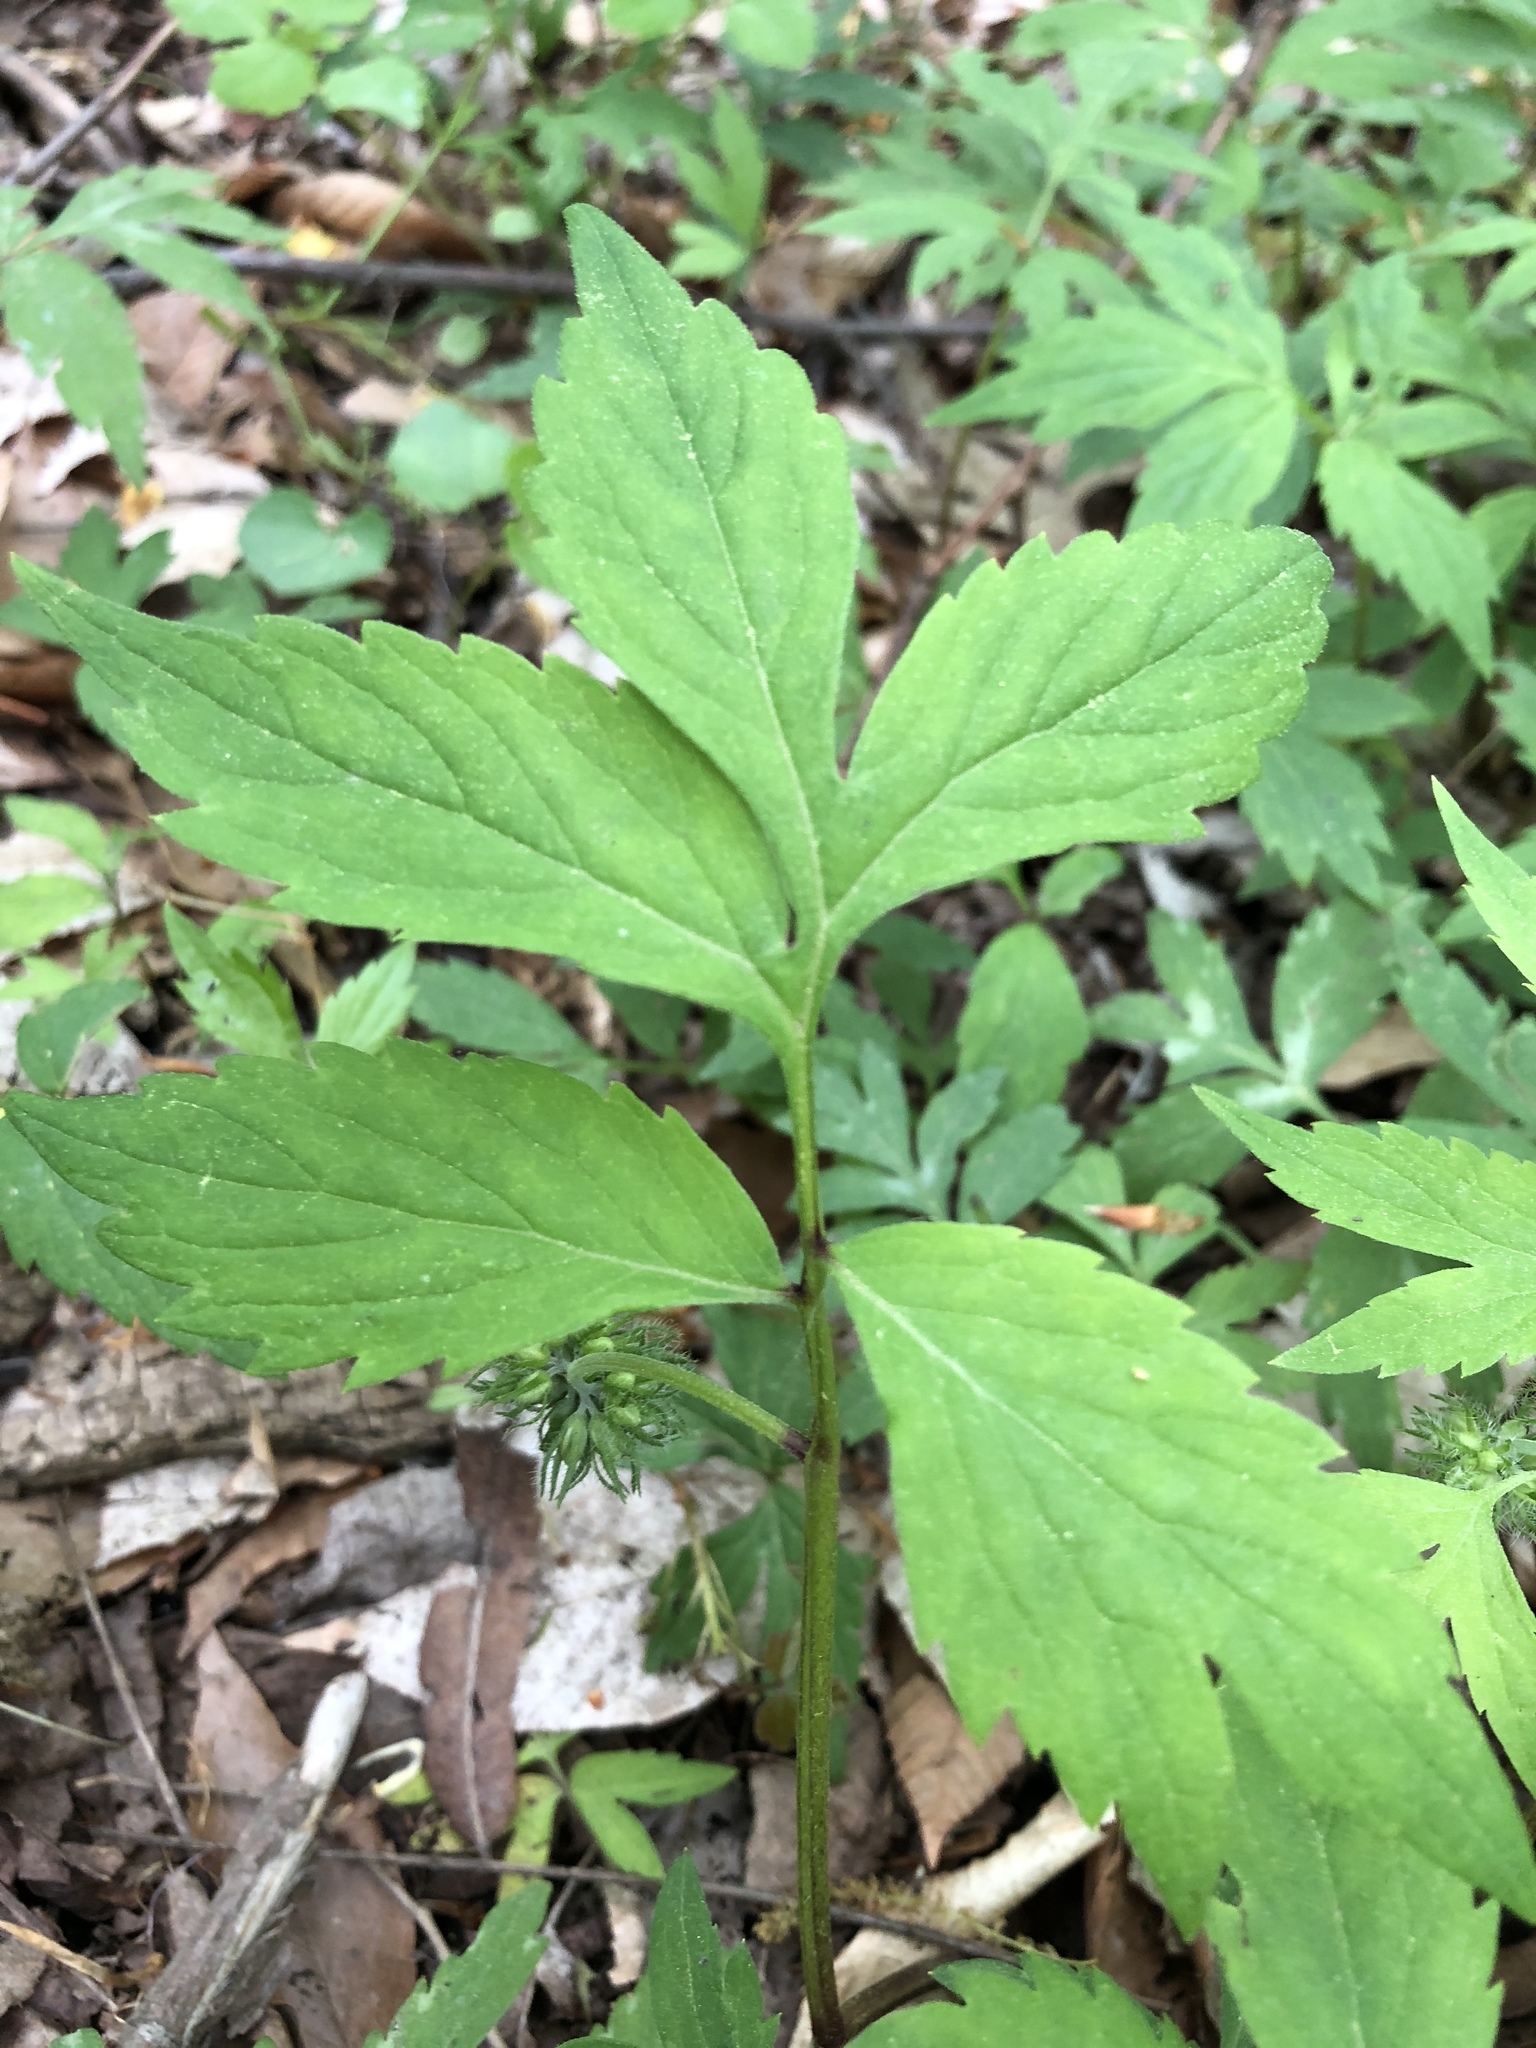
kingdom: Plantae
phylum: Tracheophyta
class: Magnoliopsida
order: Boraginales
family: Hydrophyllaceae
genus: Hydrophyllum
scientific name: Hydrophyllum virginianum
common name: Virginia waterleaf
